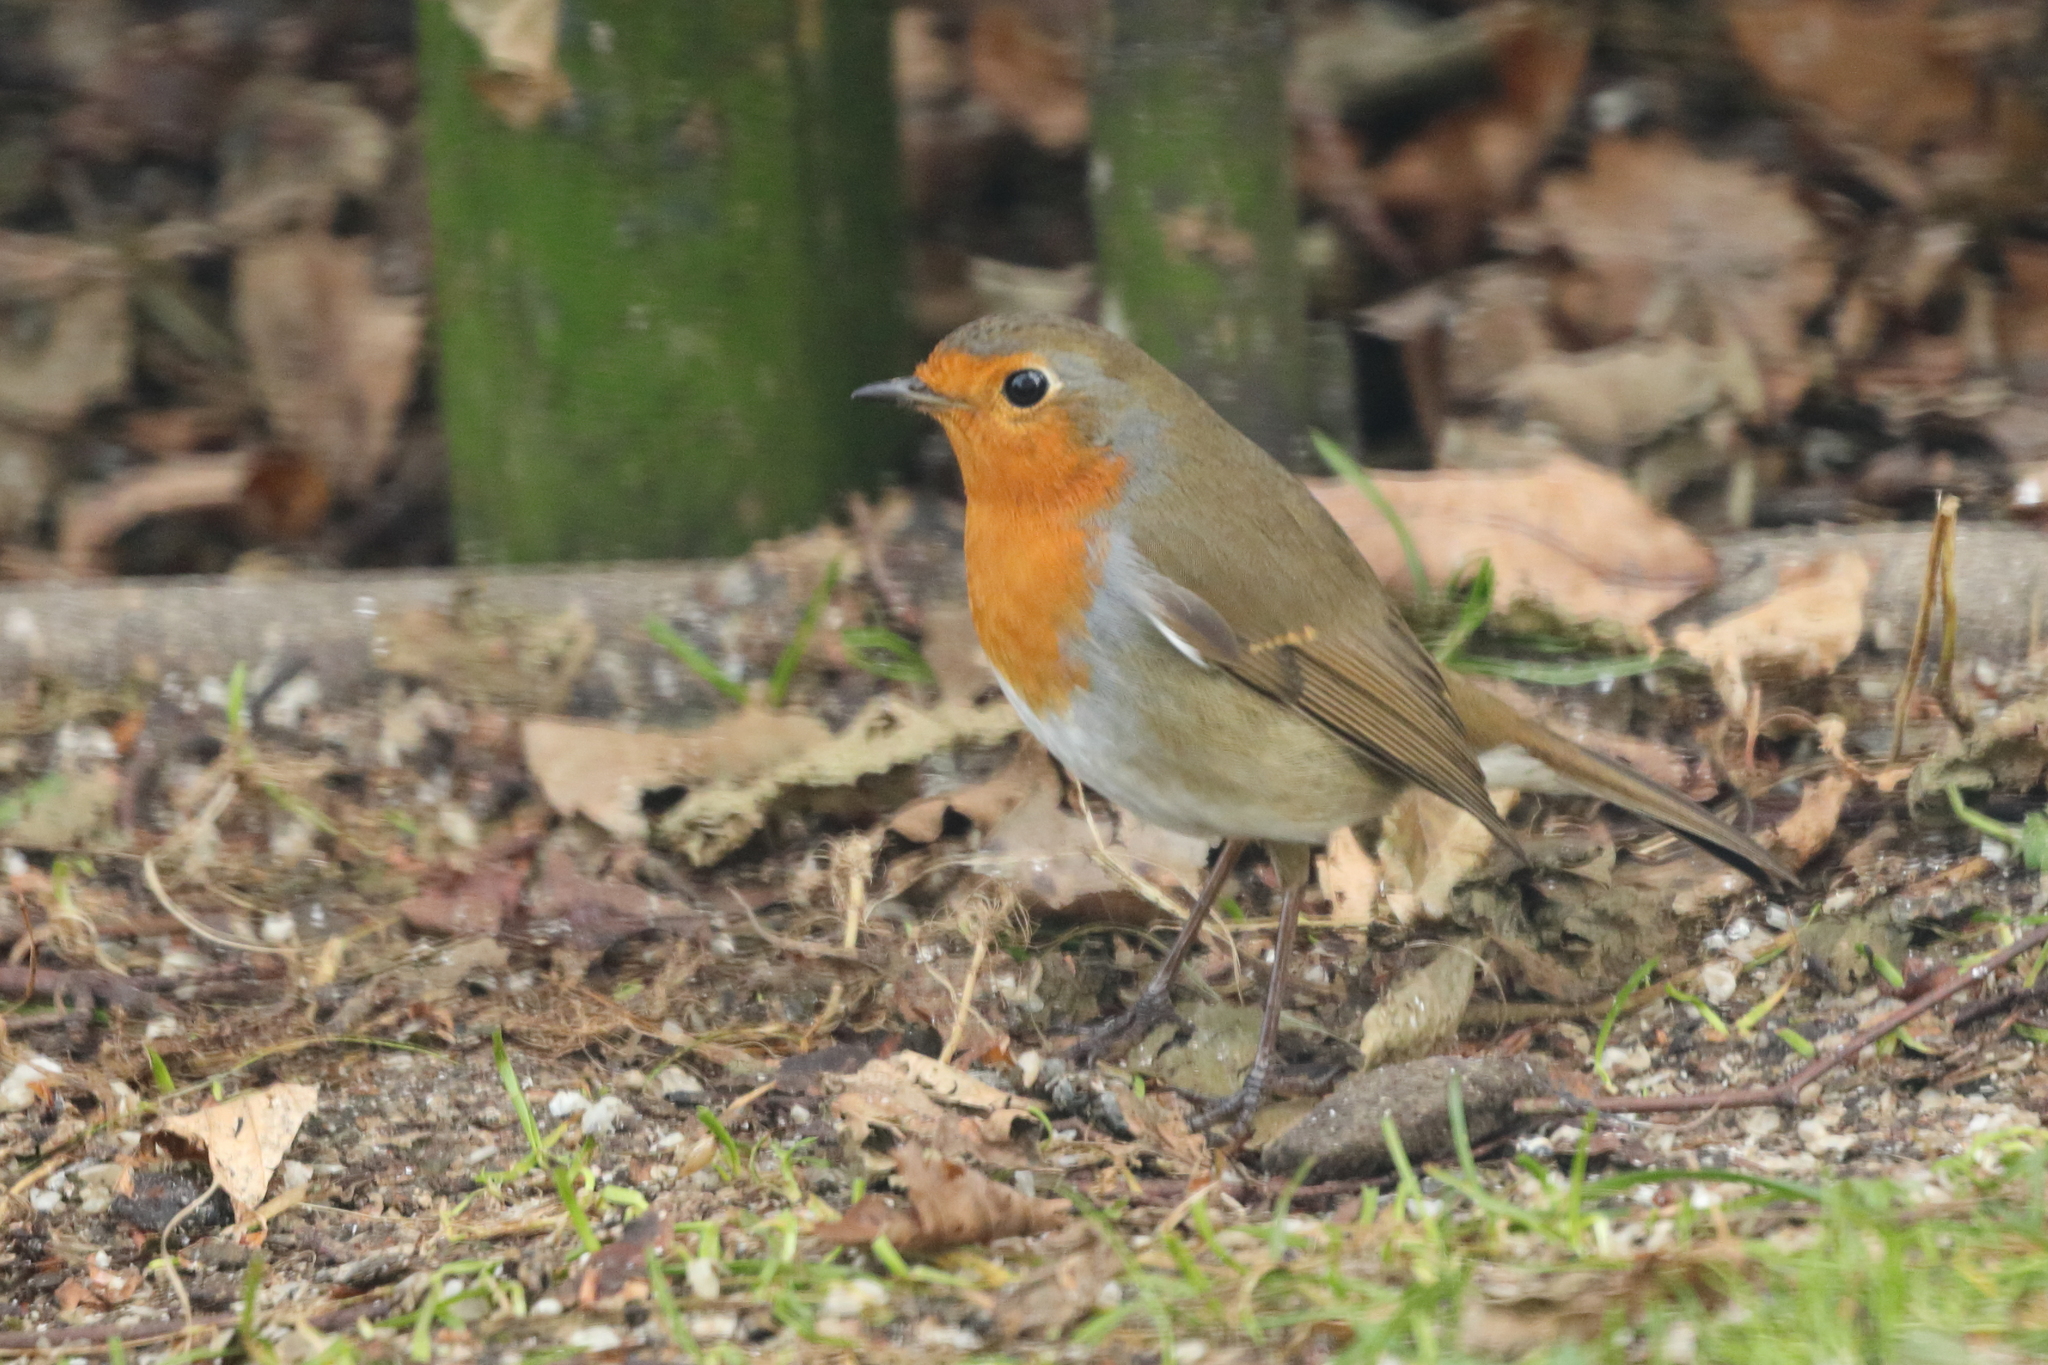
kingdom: Animalia
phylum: Chordata
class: Aves
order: Passeriformes
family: Muscicapidae
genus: Erithacus
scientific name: Erithacus rubecula
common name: European robin
